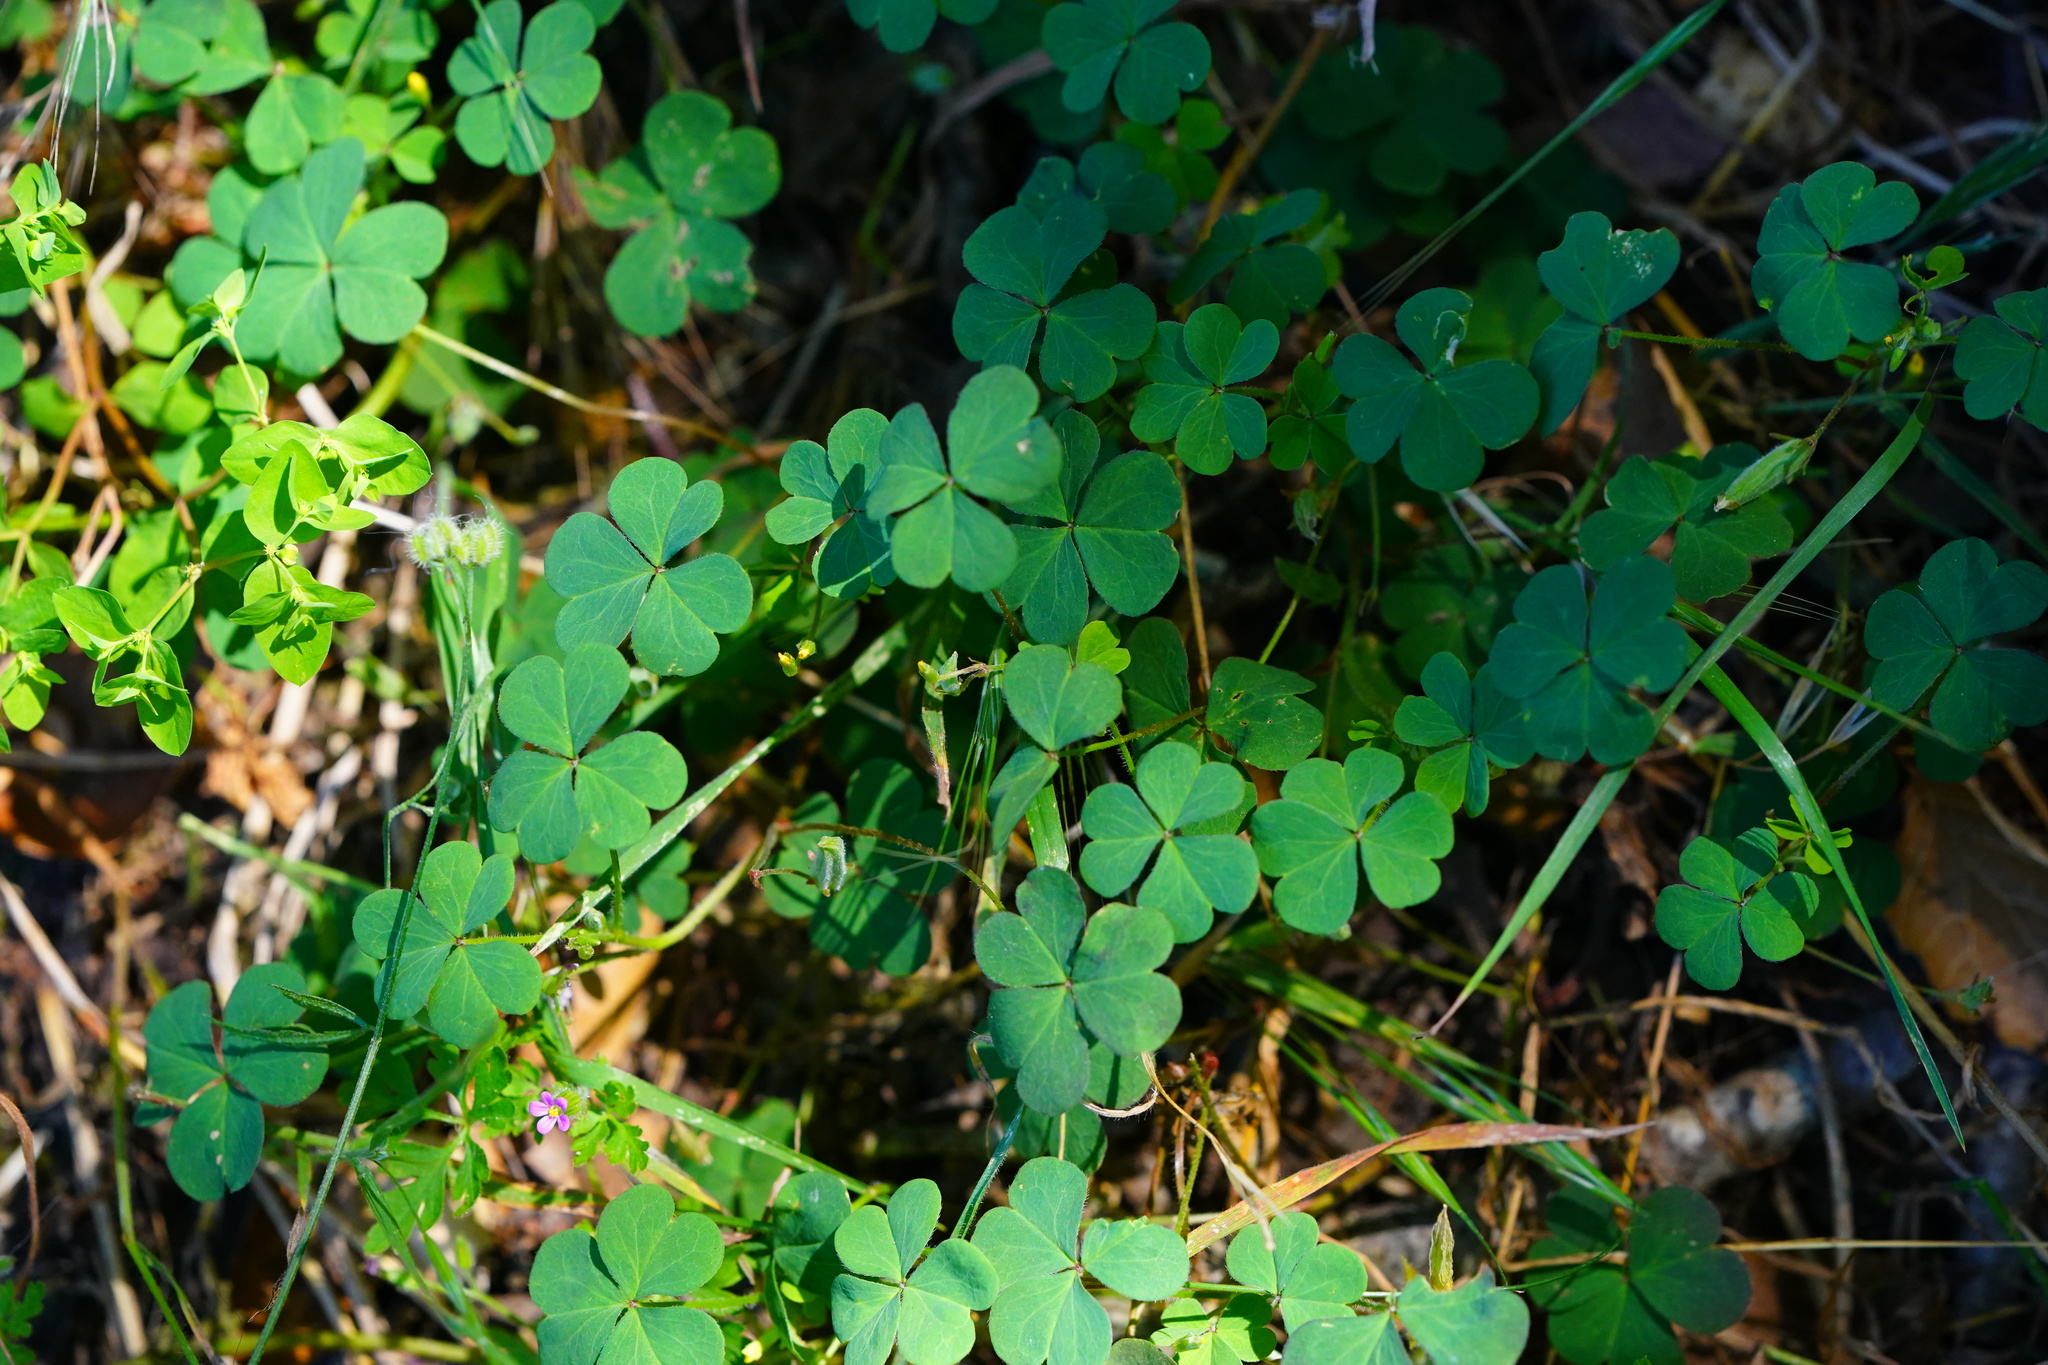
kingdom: Plantae
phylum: Tracheophyta
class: Magnoliopsida
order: Oxalidales
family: Oxalidaceae
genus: Oxalis
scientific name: Oxalis corniculata
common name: Procumbent yellow-sorrel
